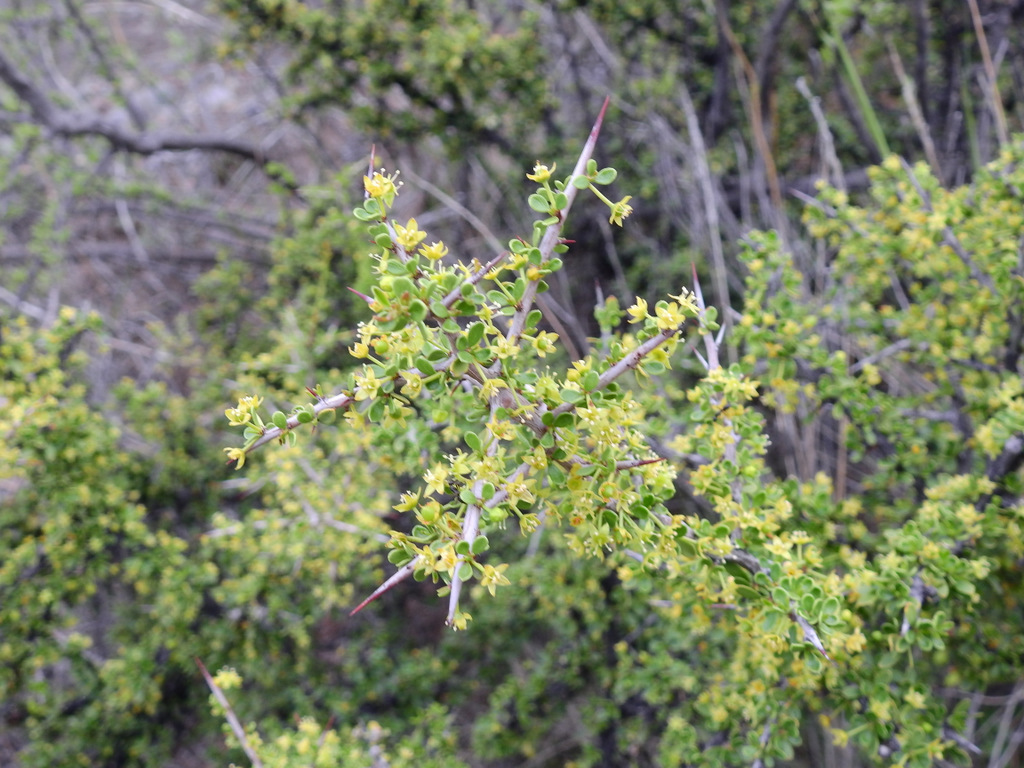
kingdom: Plantae
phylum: Tracheophyta
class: Magnoliopsida
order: Rosales
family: Rhamnaceae
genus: Condalia
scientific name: Condalia microphylla
